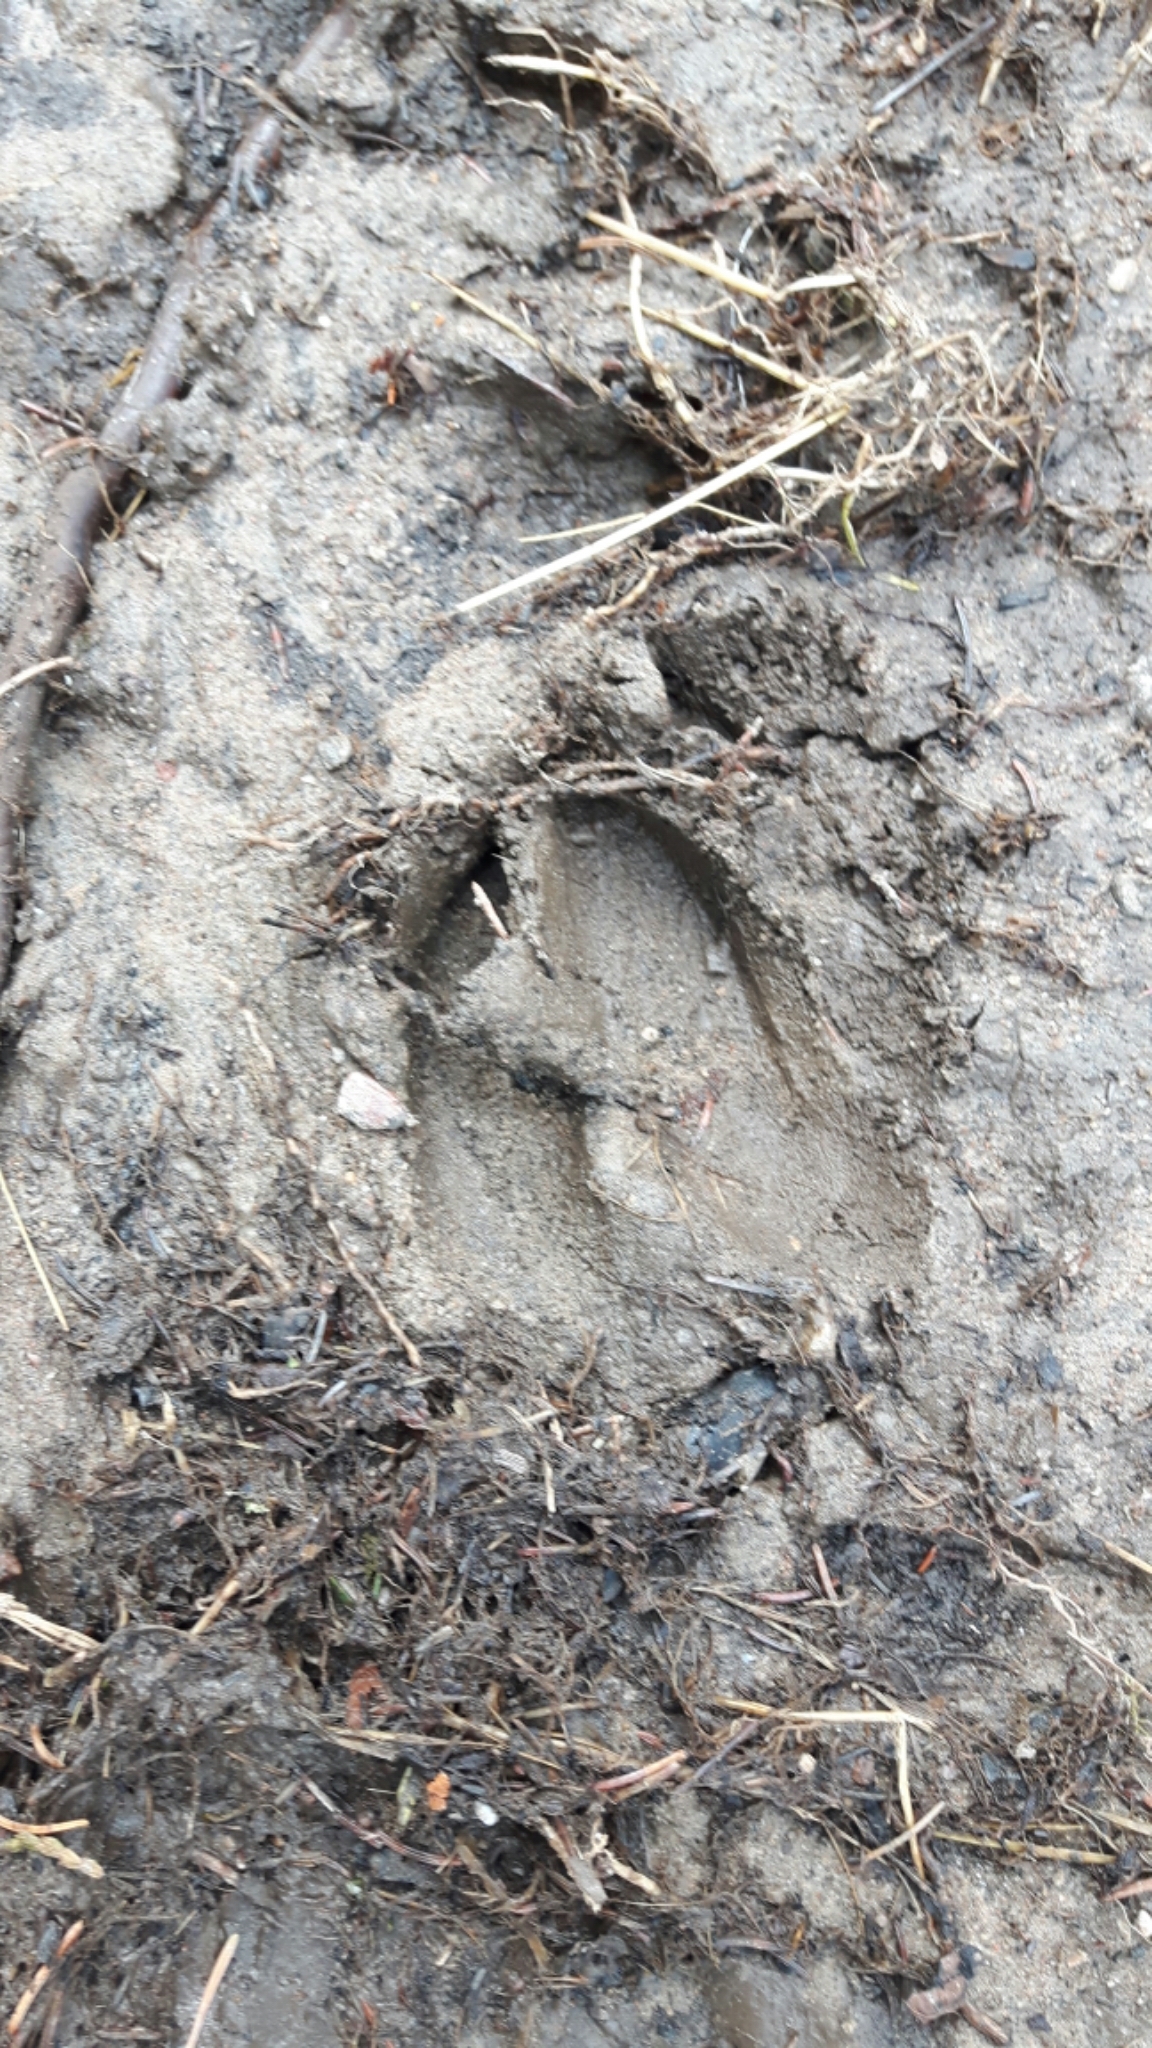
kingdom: Animalia
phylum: Chordata
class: Mammalia
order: Artiodactyla
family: Cervidae
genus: Odocoileus
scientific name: Odocoileus virginianus
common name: White-tailed deer
